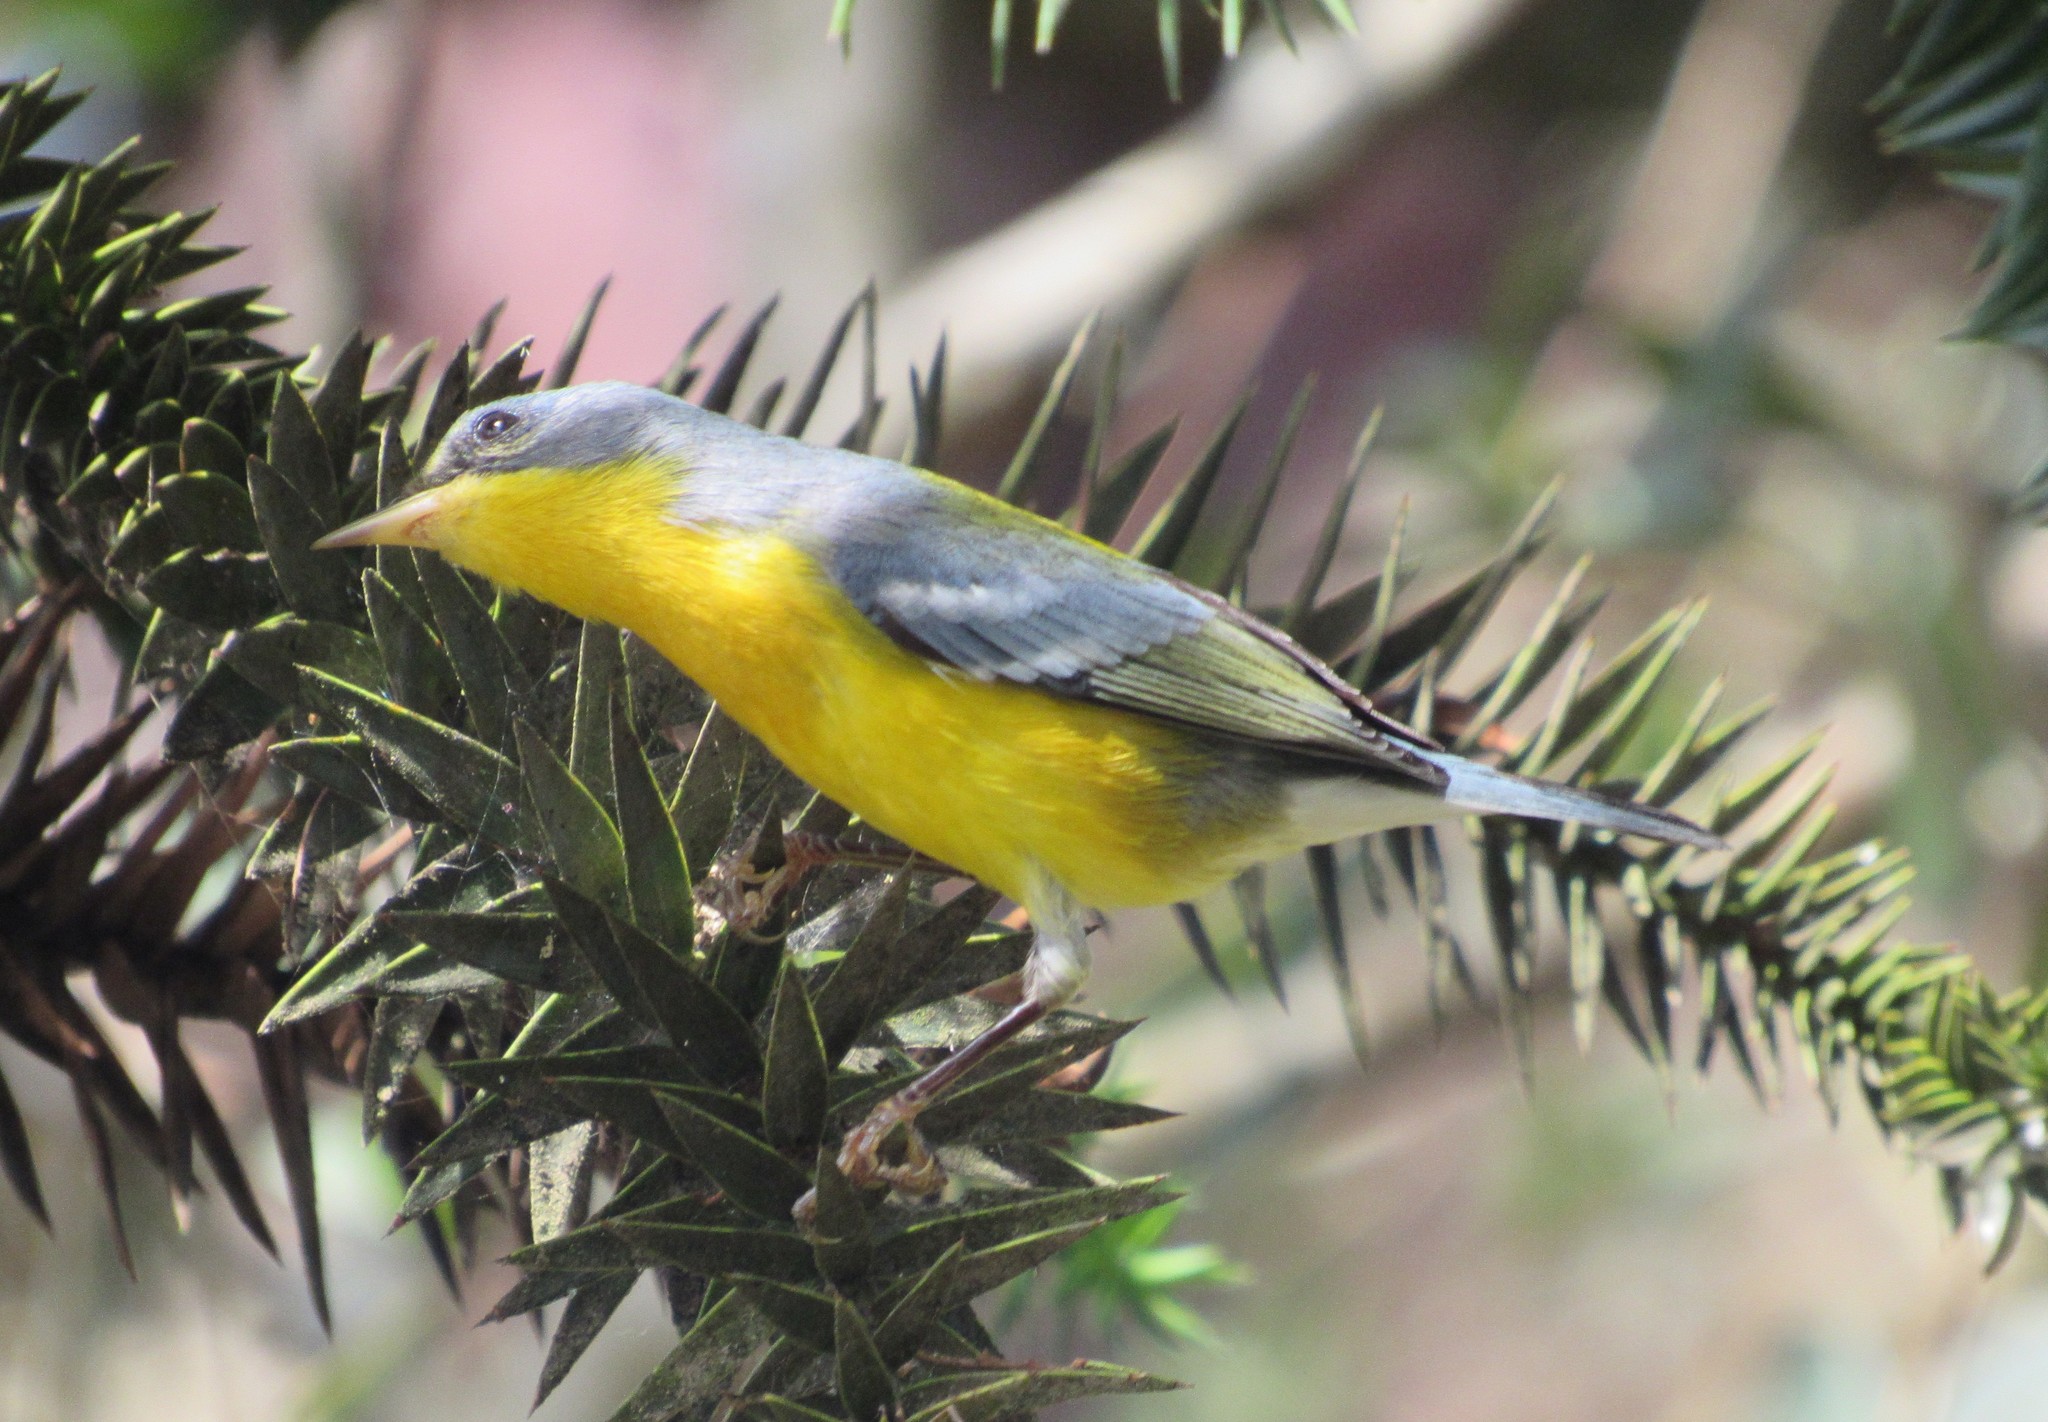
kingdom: Animalia
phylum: Chordata
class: Aves
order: Passeriformes
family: Parulidae
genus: Setophaga
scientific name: Setophaga pitiayumi
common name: Tropical parula
